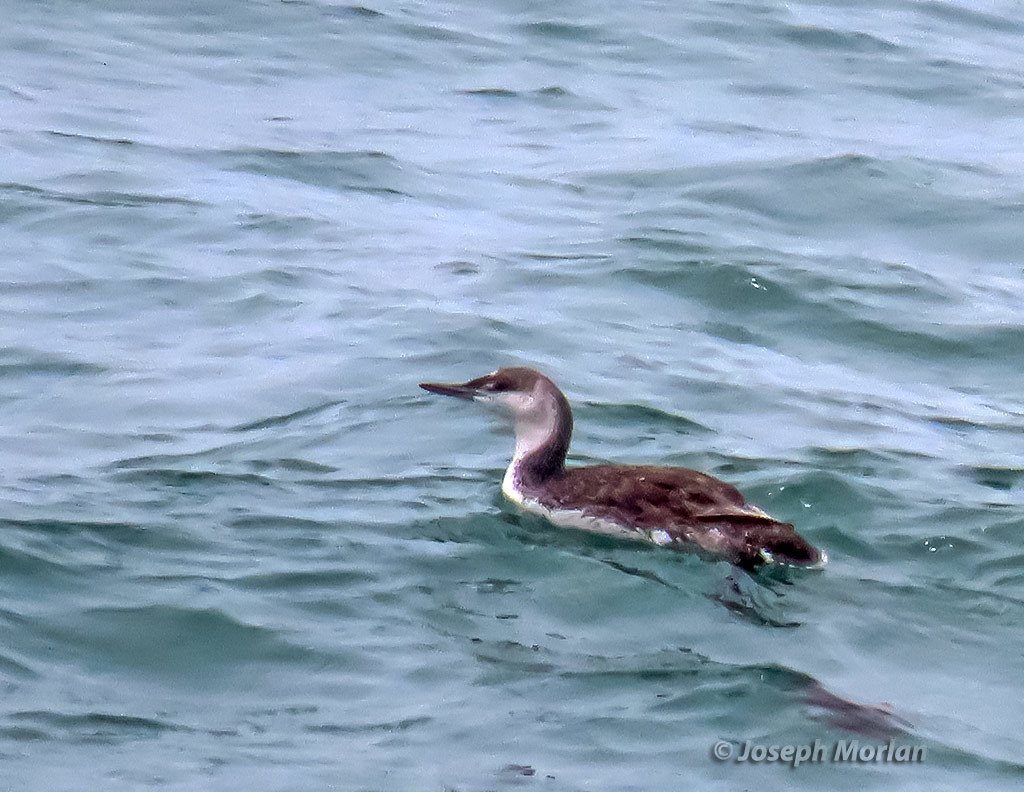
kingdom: Animalia
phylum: Chordata
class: Aves
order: Gaviiformes
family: Gaviidae
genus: Gavia
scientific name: Gavia stellata
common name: Red-throated loon
